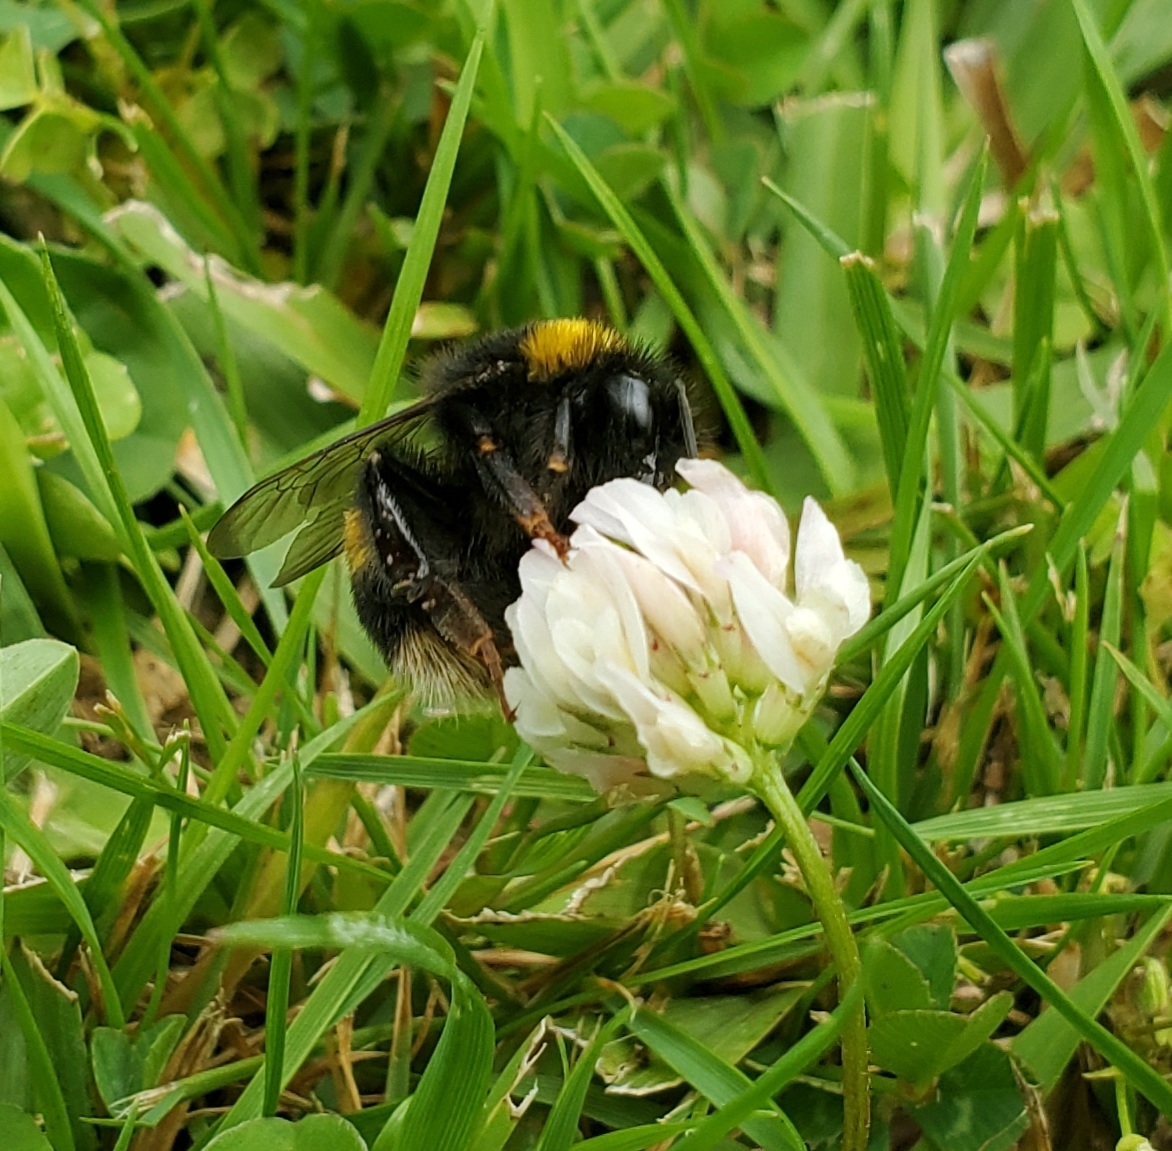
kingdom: Animalia
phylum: Arthropoda
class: Insecta
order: Hymenoptera
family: Apidae
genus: Bombus
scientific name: Bombus terrestris
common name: Buff-tailed bumblebee
